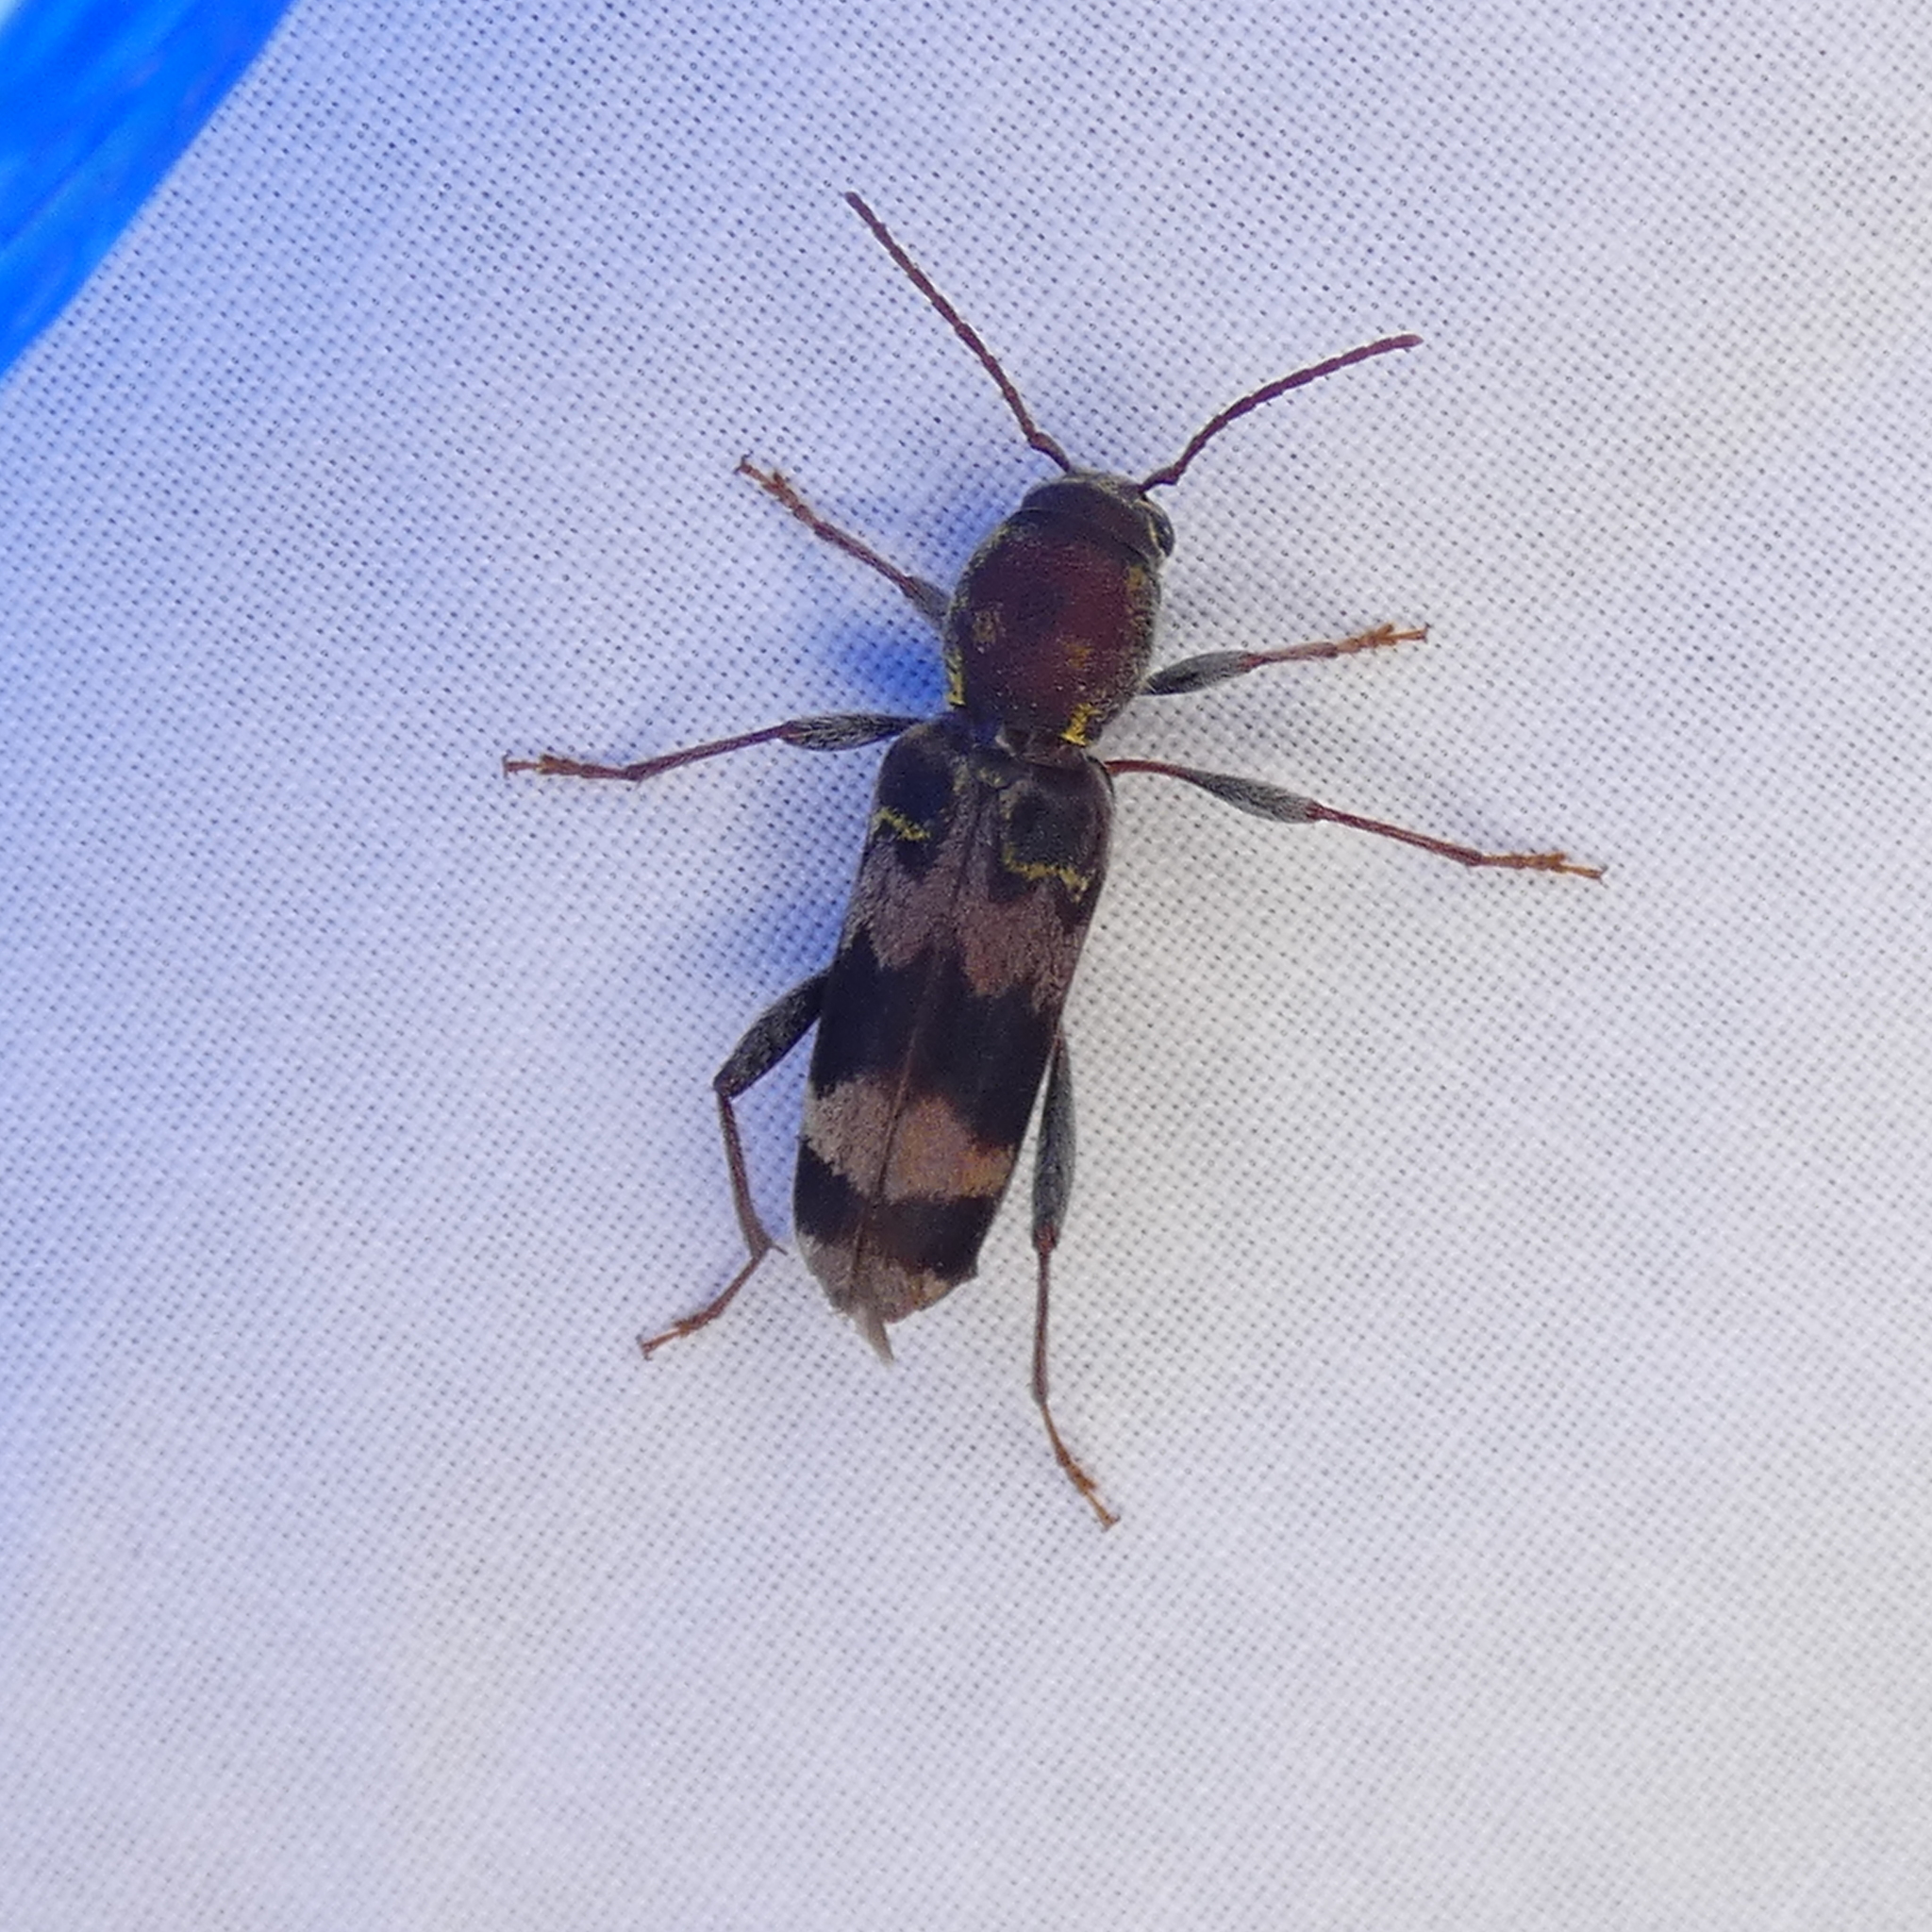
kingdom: Animalia
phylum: Arthropoda
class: Insecta
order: Coleoptera
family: Cerambycidae
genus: Xylotrechus
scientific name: Xylotrechus colonus
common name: Long-horned beetle
